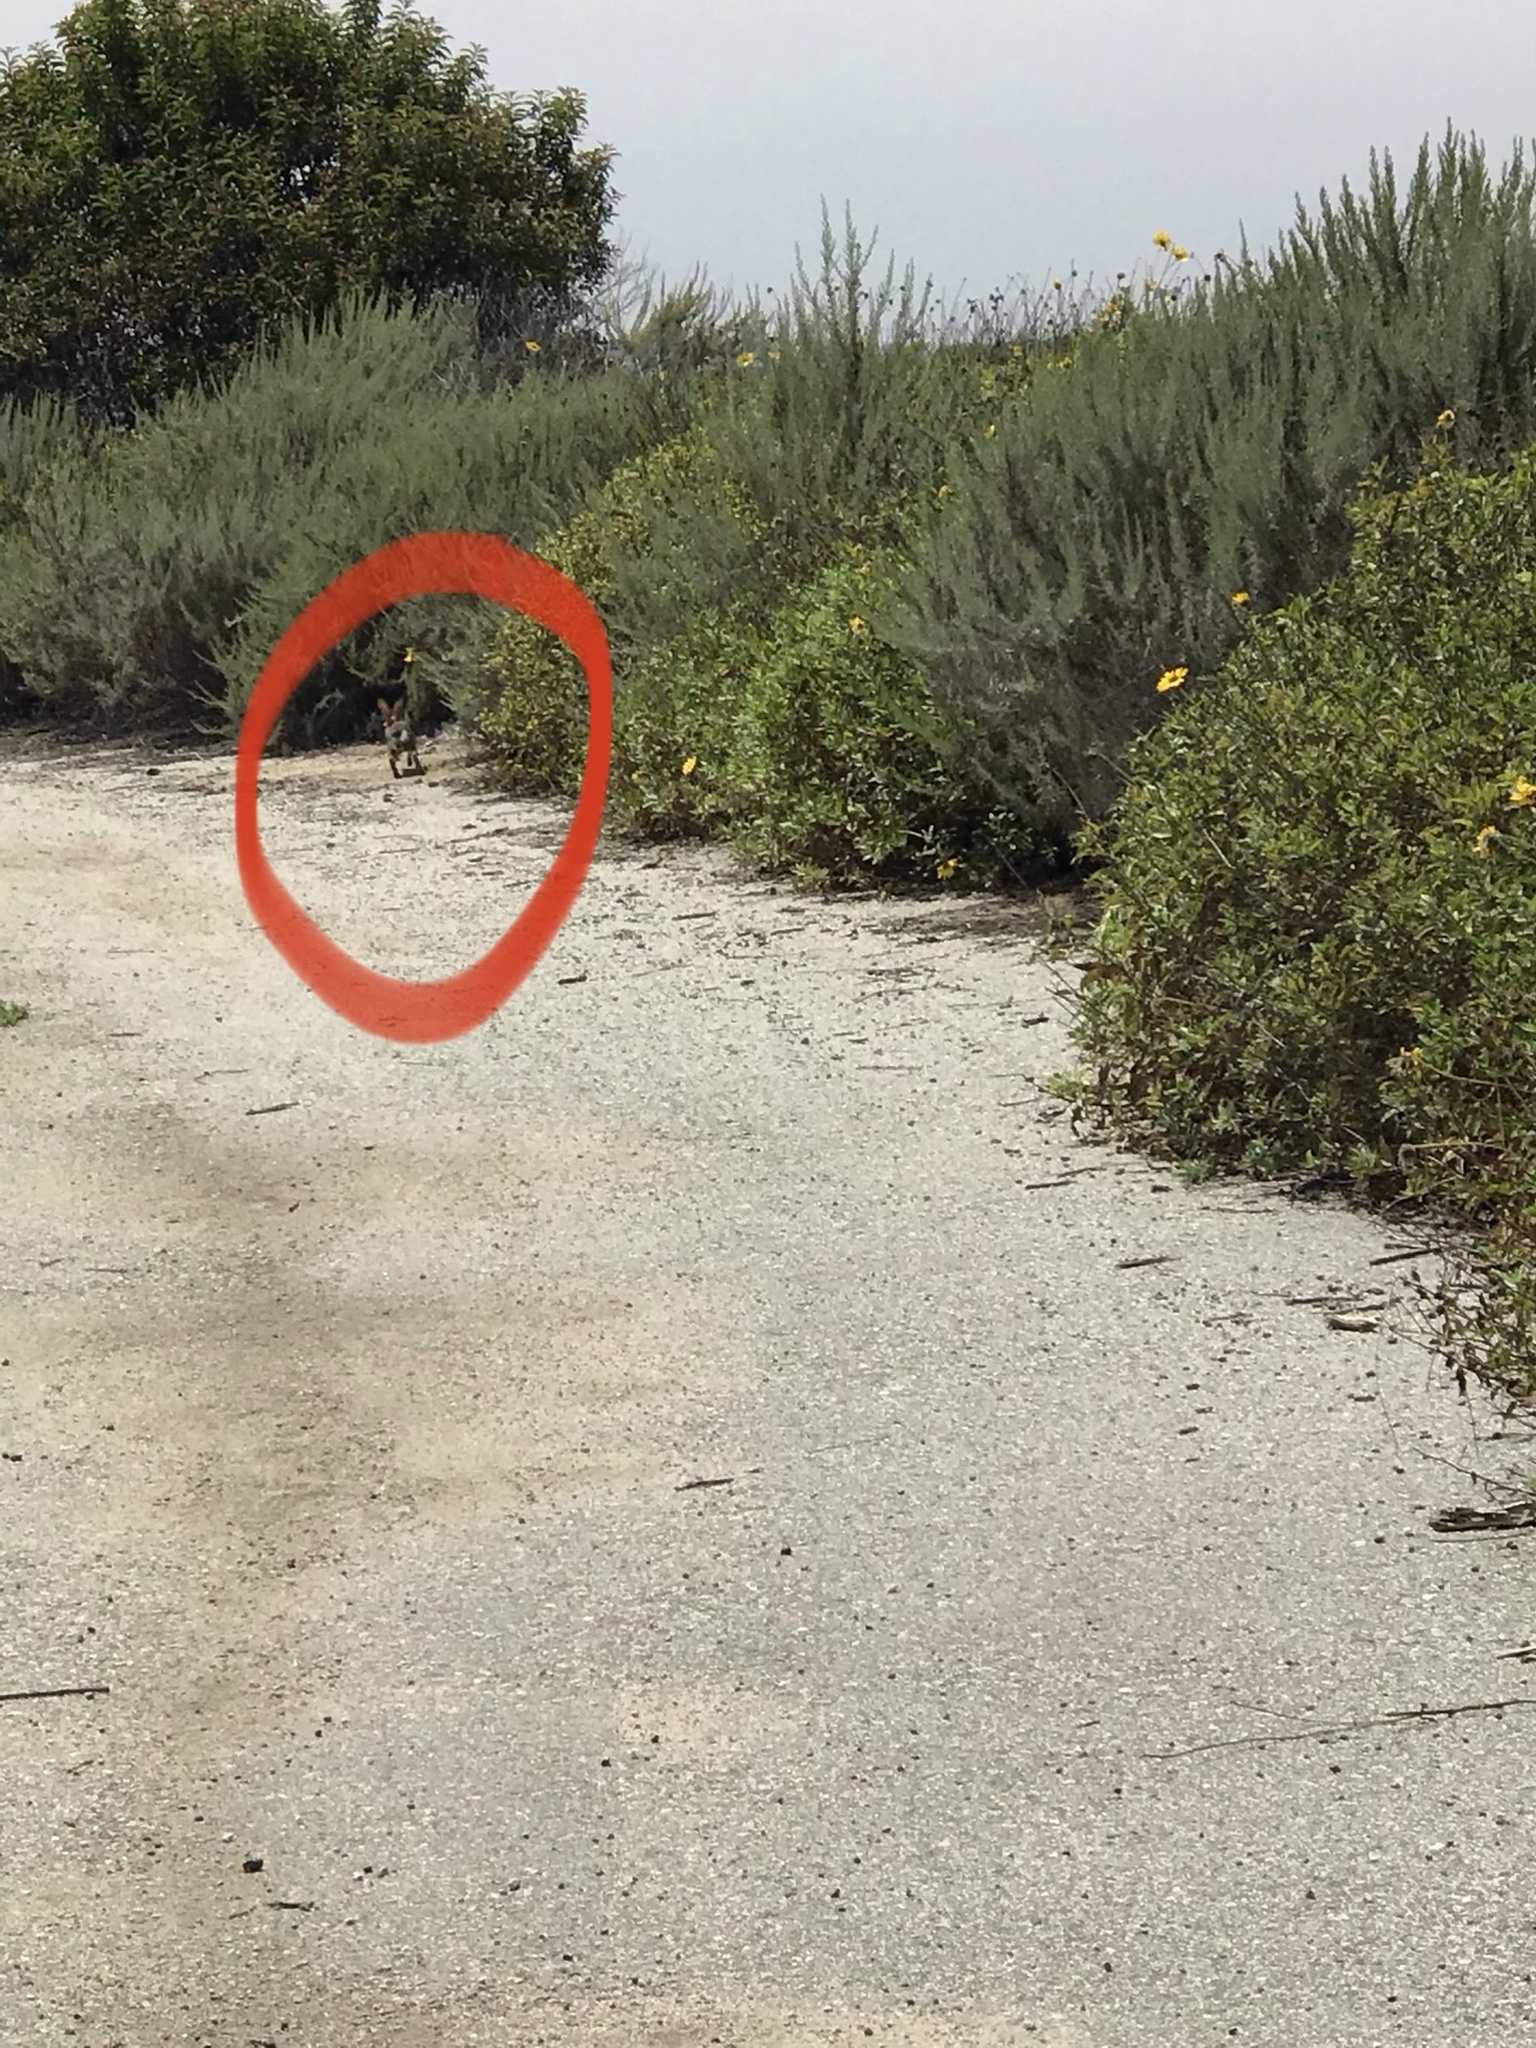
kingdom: Animalia
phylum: Chordata
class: Mammalia
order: Lagomorpha
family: Leporidae
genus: Sylvilagus
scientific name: Sylvilagus audubonii
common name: Desert cottontail
